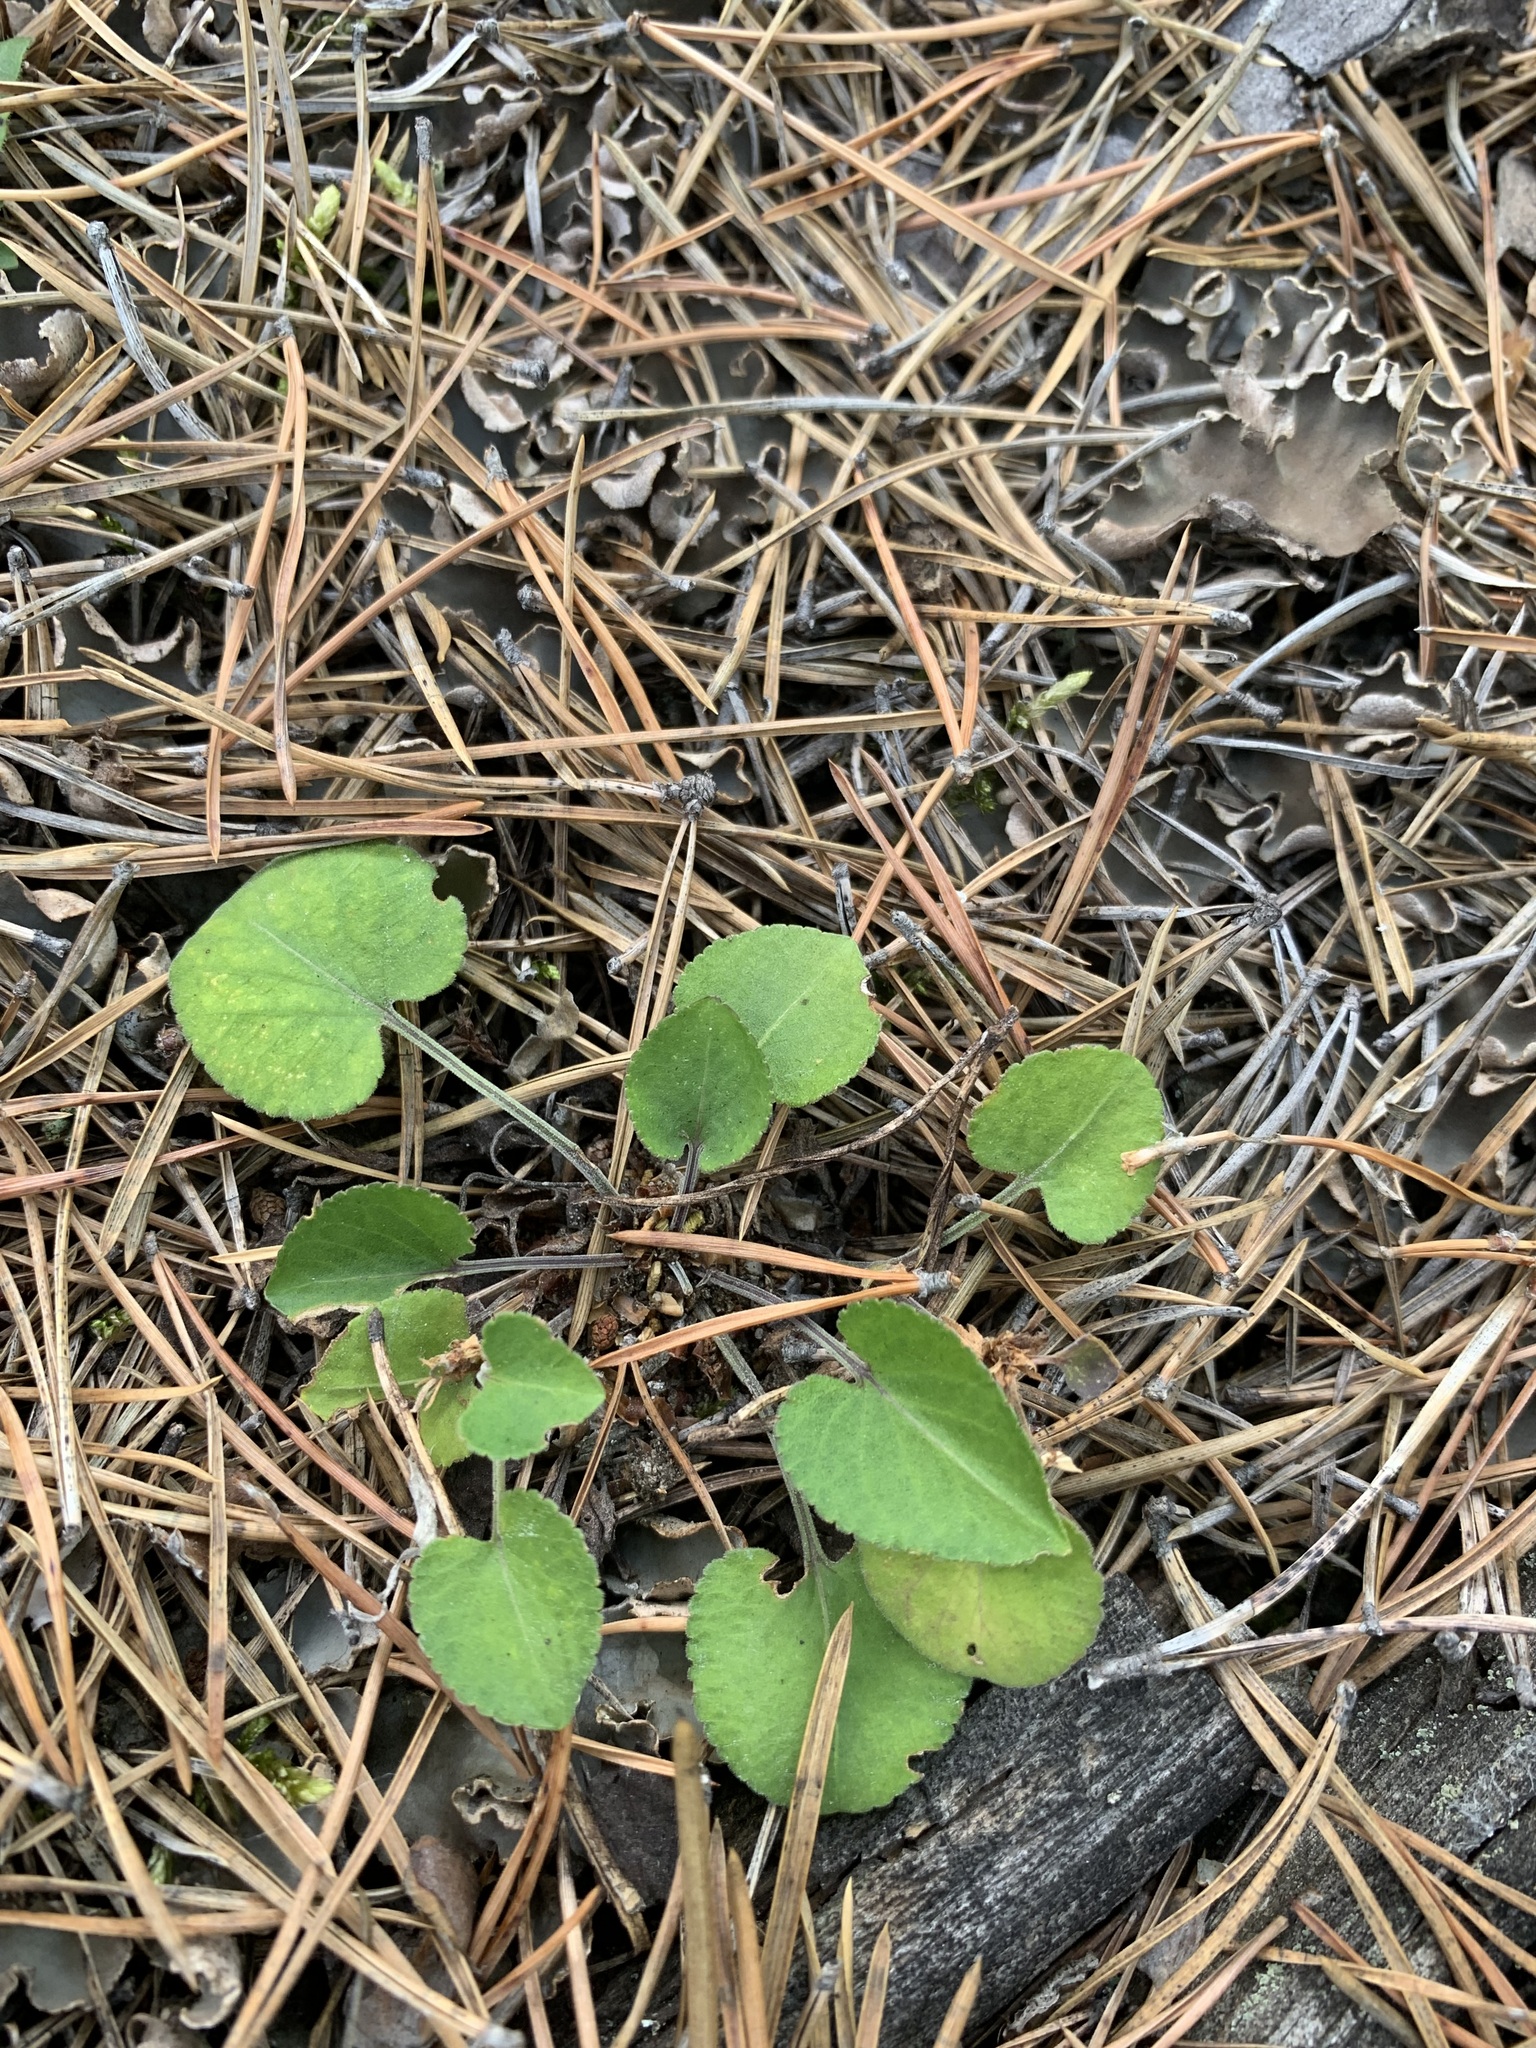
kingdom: Plantae
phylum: Tracheophyta
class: Magnoliopsida
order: Malpighiales
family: Violaceae
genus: Viola
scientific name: Viola rupestris
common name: Teesdale violet
